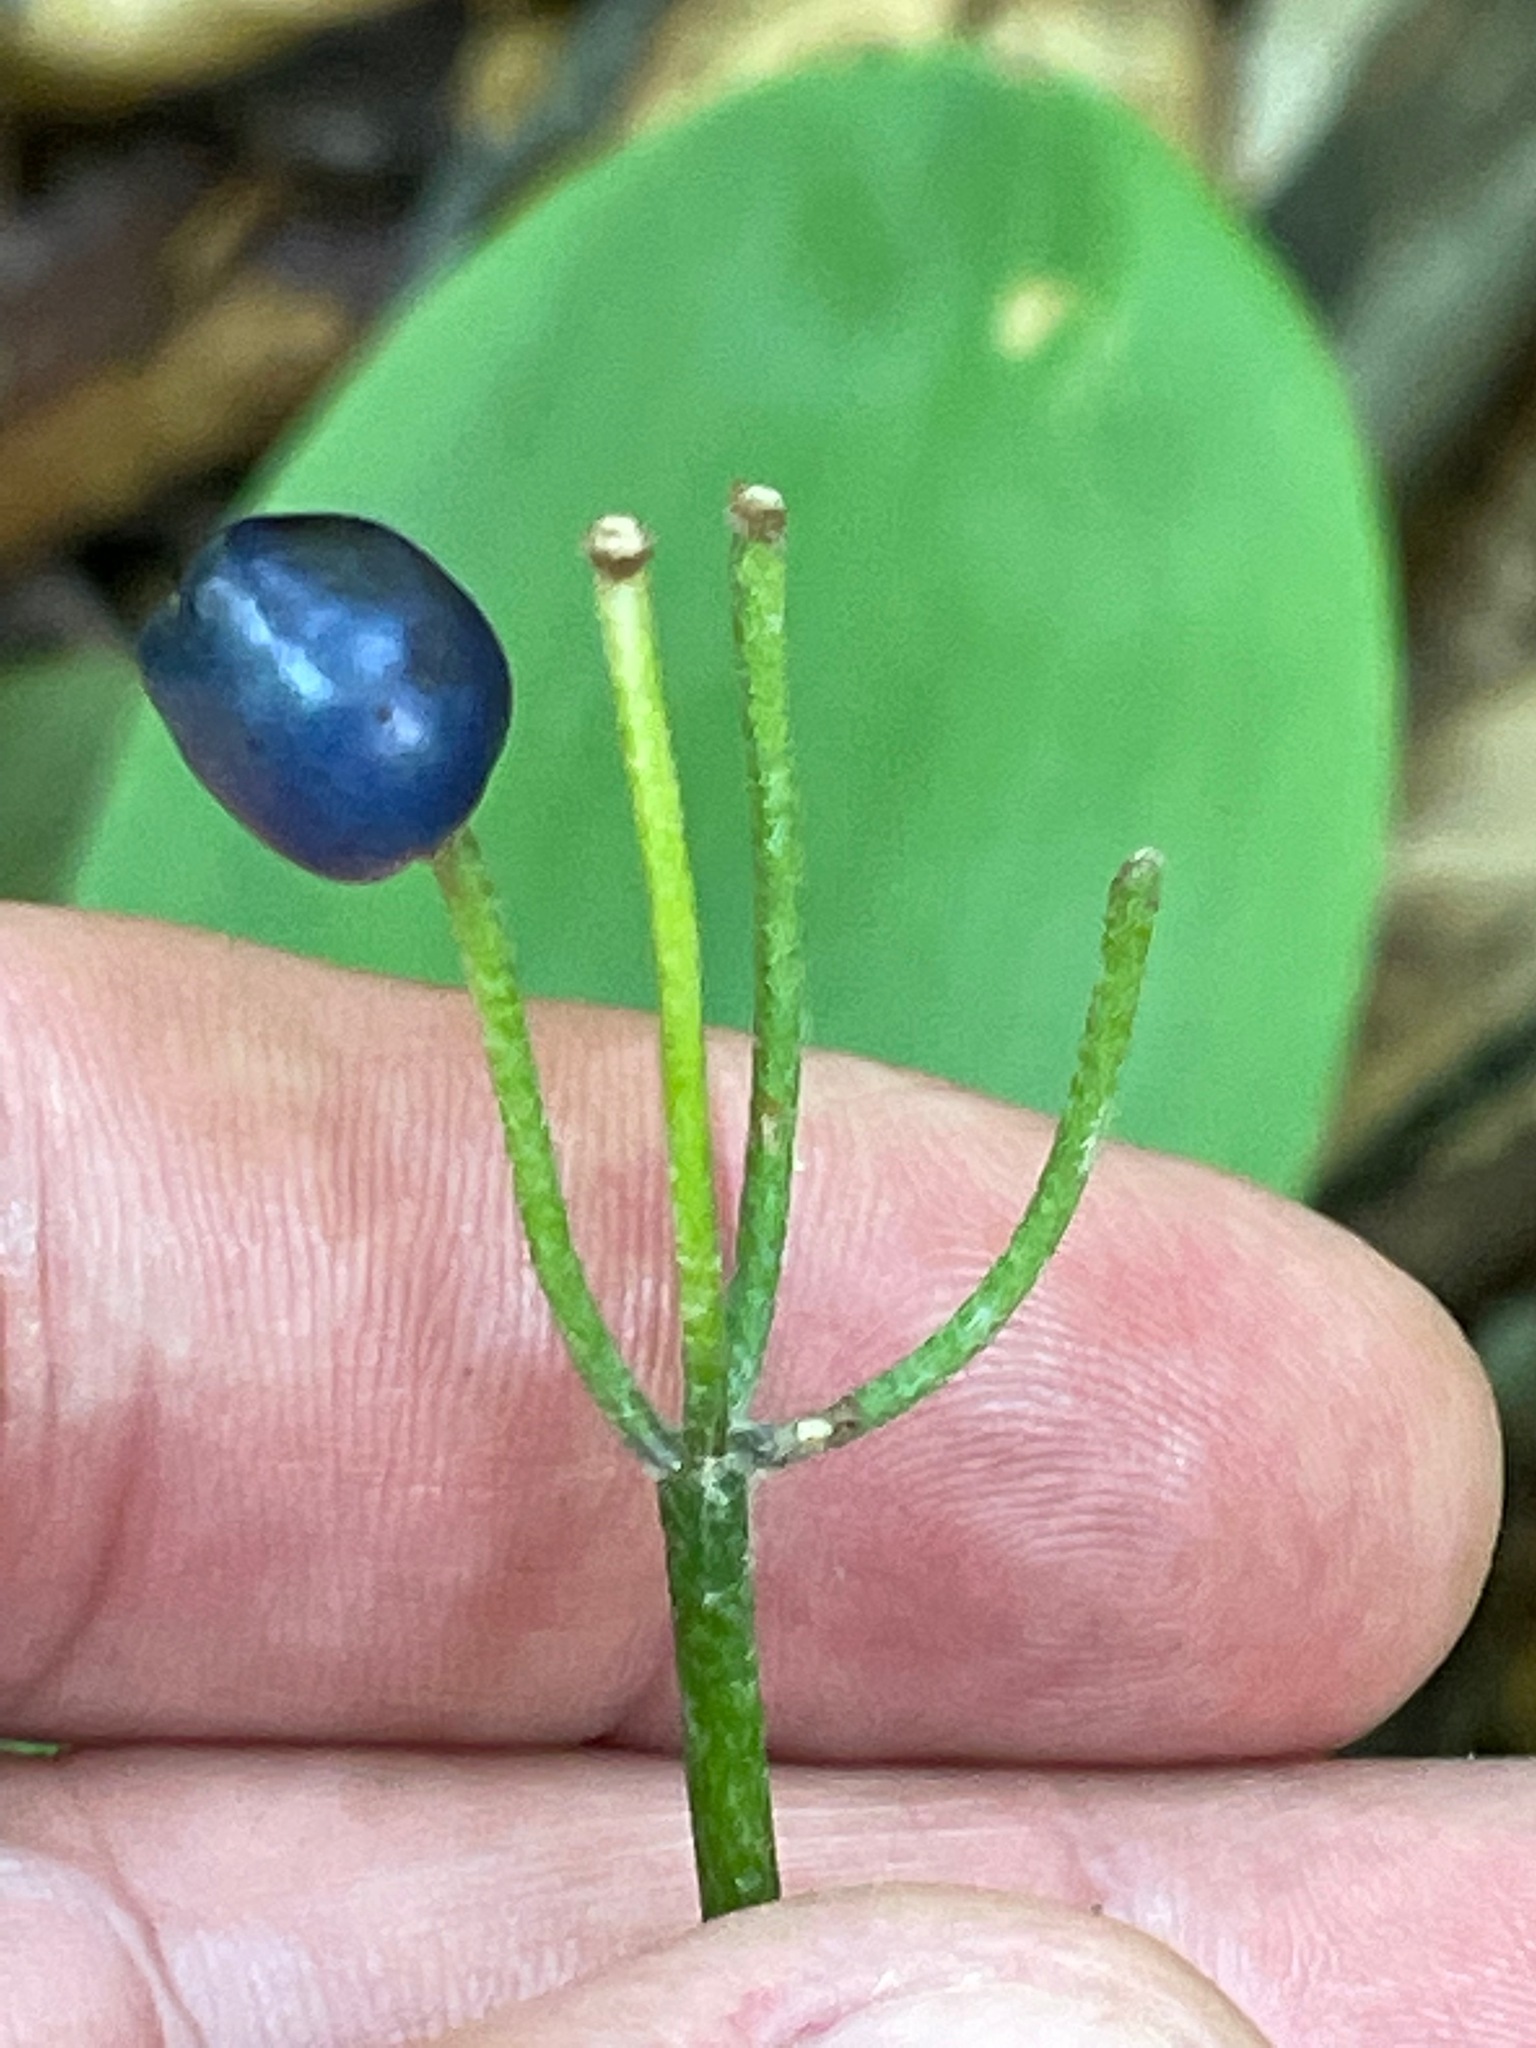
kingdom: Plantae
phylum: Tracheophyta
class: Liliopsida
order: Liliales
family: Liliaceae
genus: Clintonia
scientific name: Clintonia borealis
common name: Yellow clintonia
